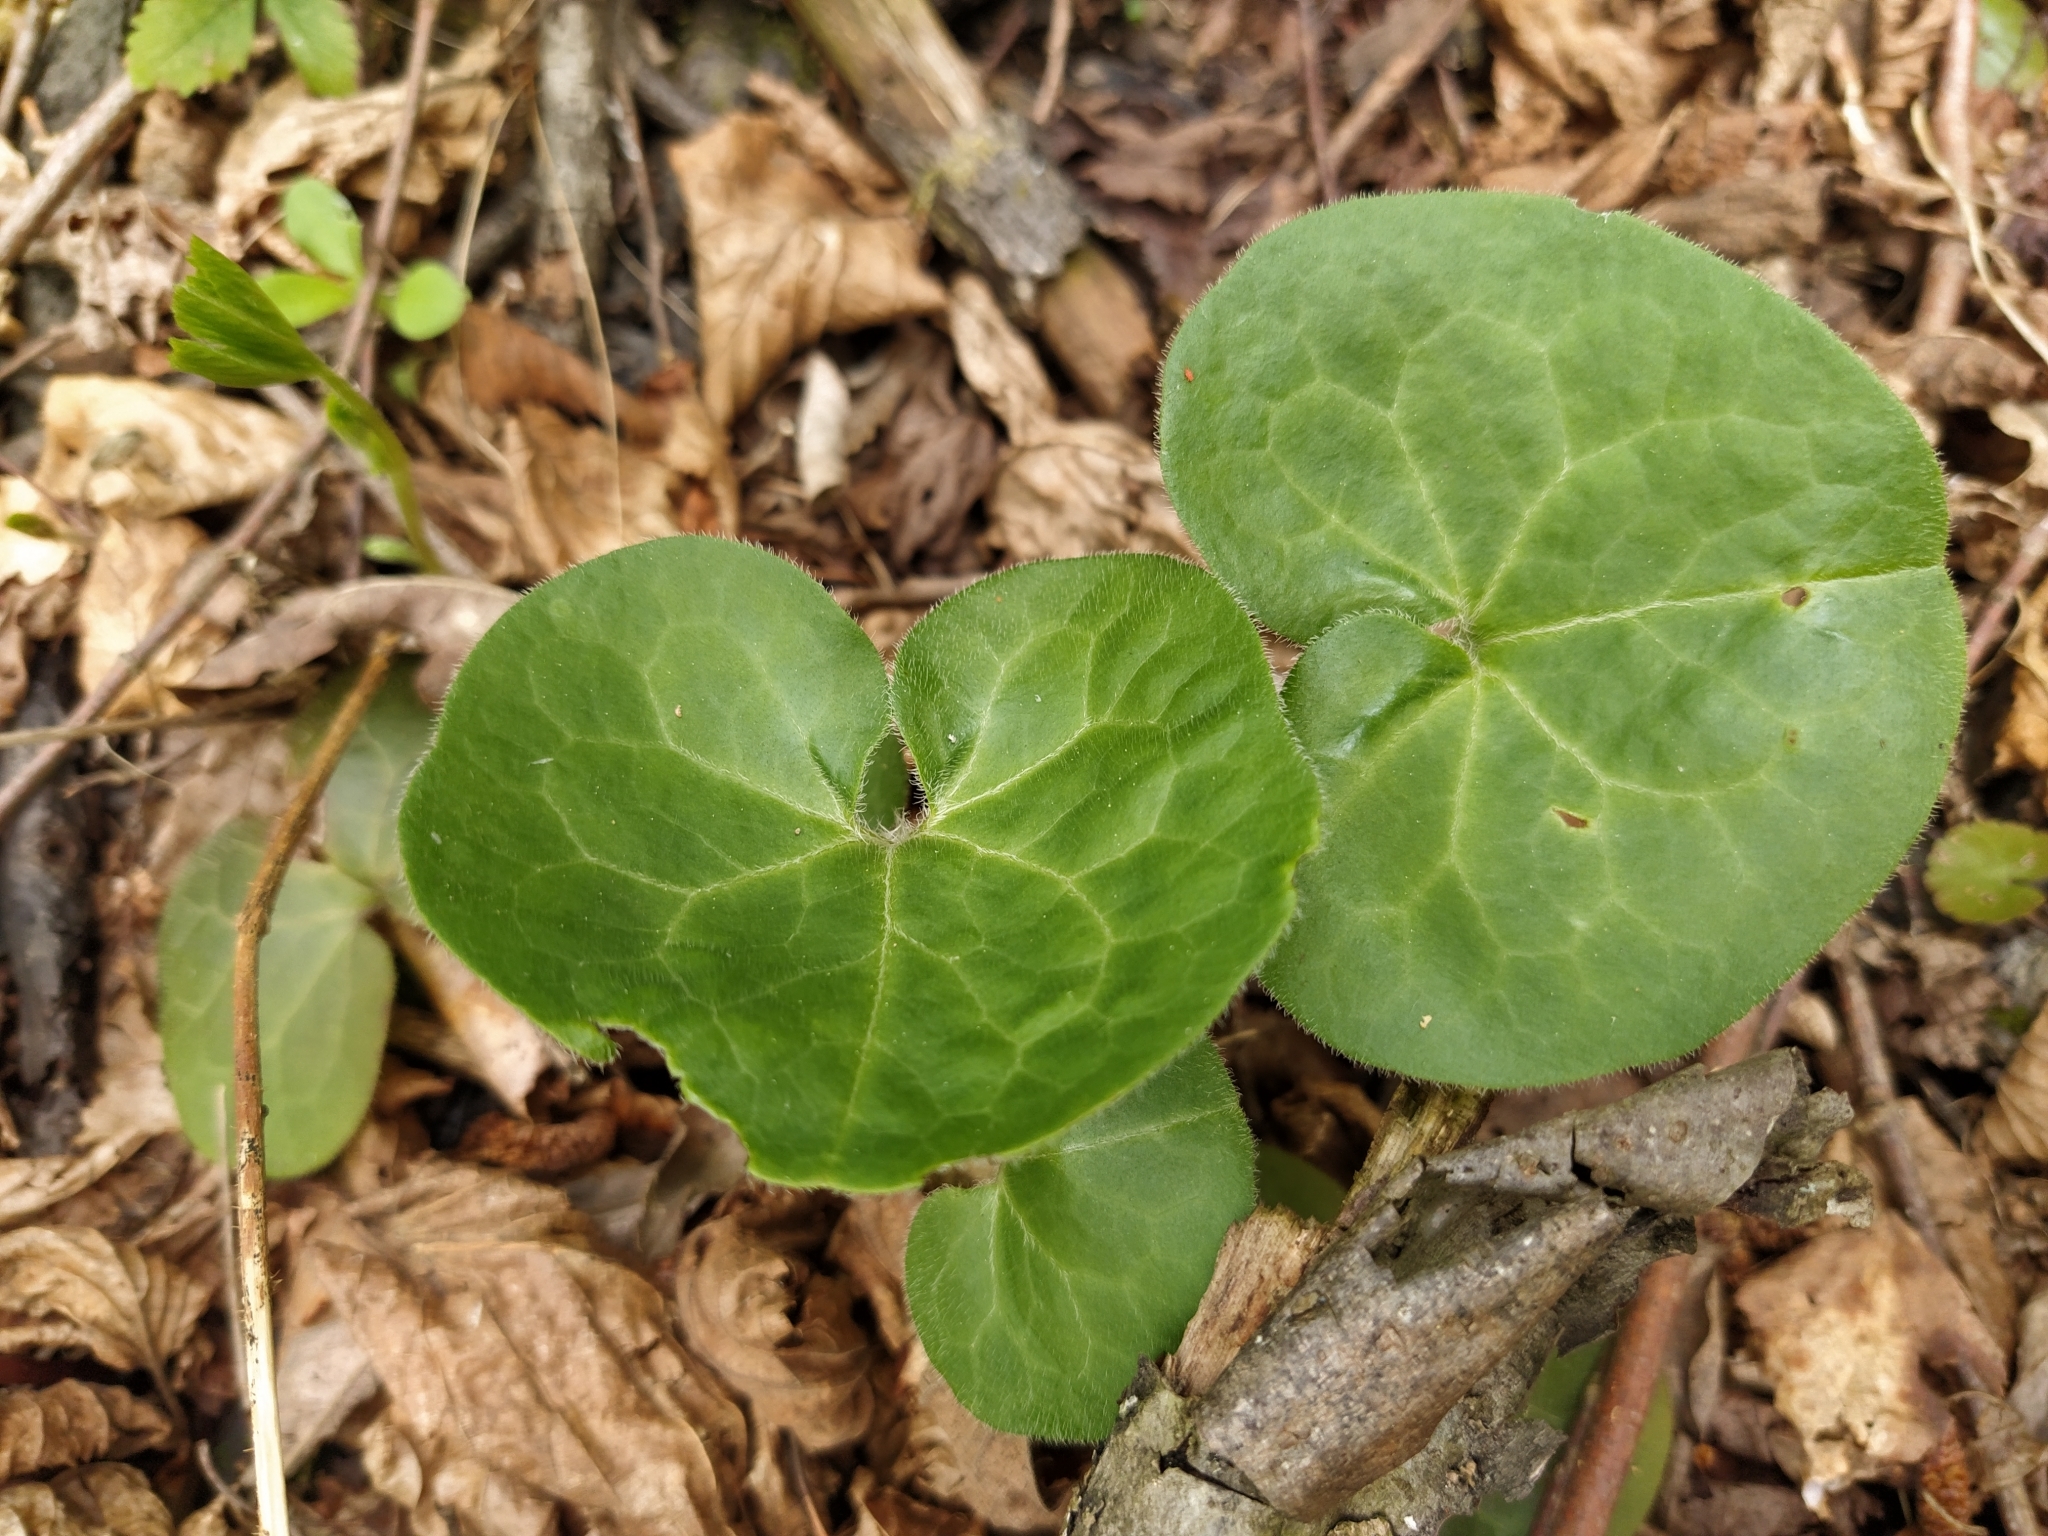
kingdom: Plantae
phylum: Tracheophyta
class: Magnoliopsida
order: Piperales
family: Aristolochiaceae
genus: Asarum
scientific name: Asarum europaeum
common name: Asarabacca
